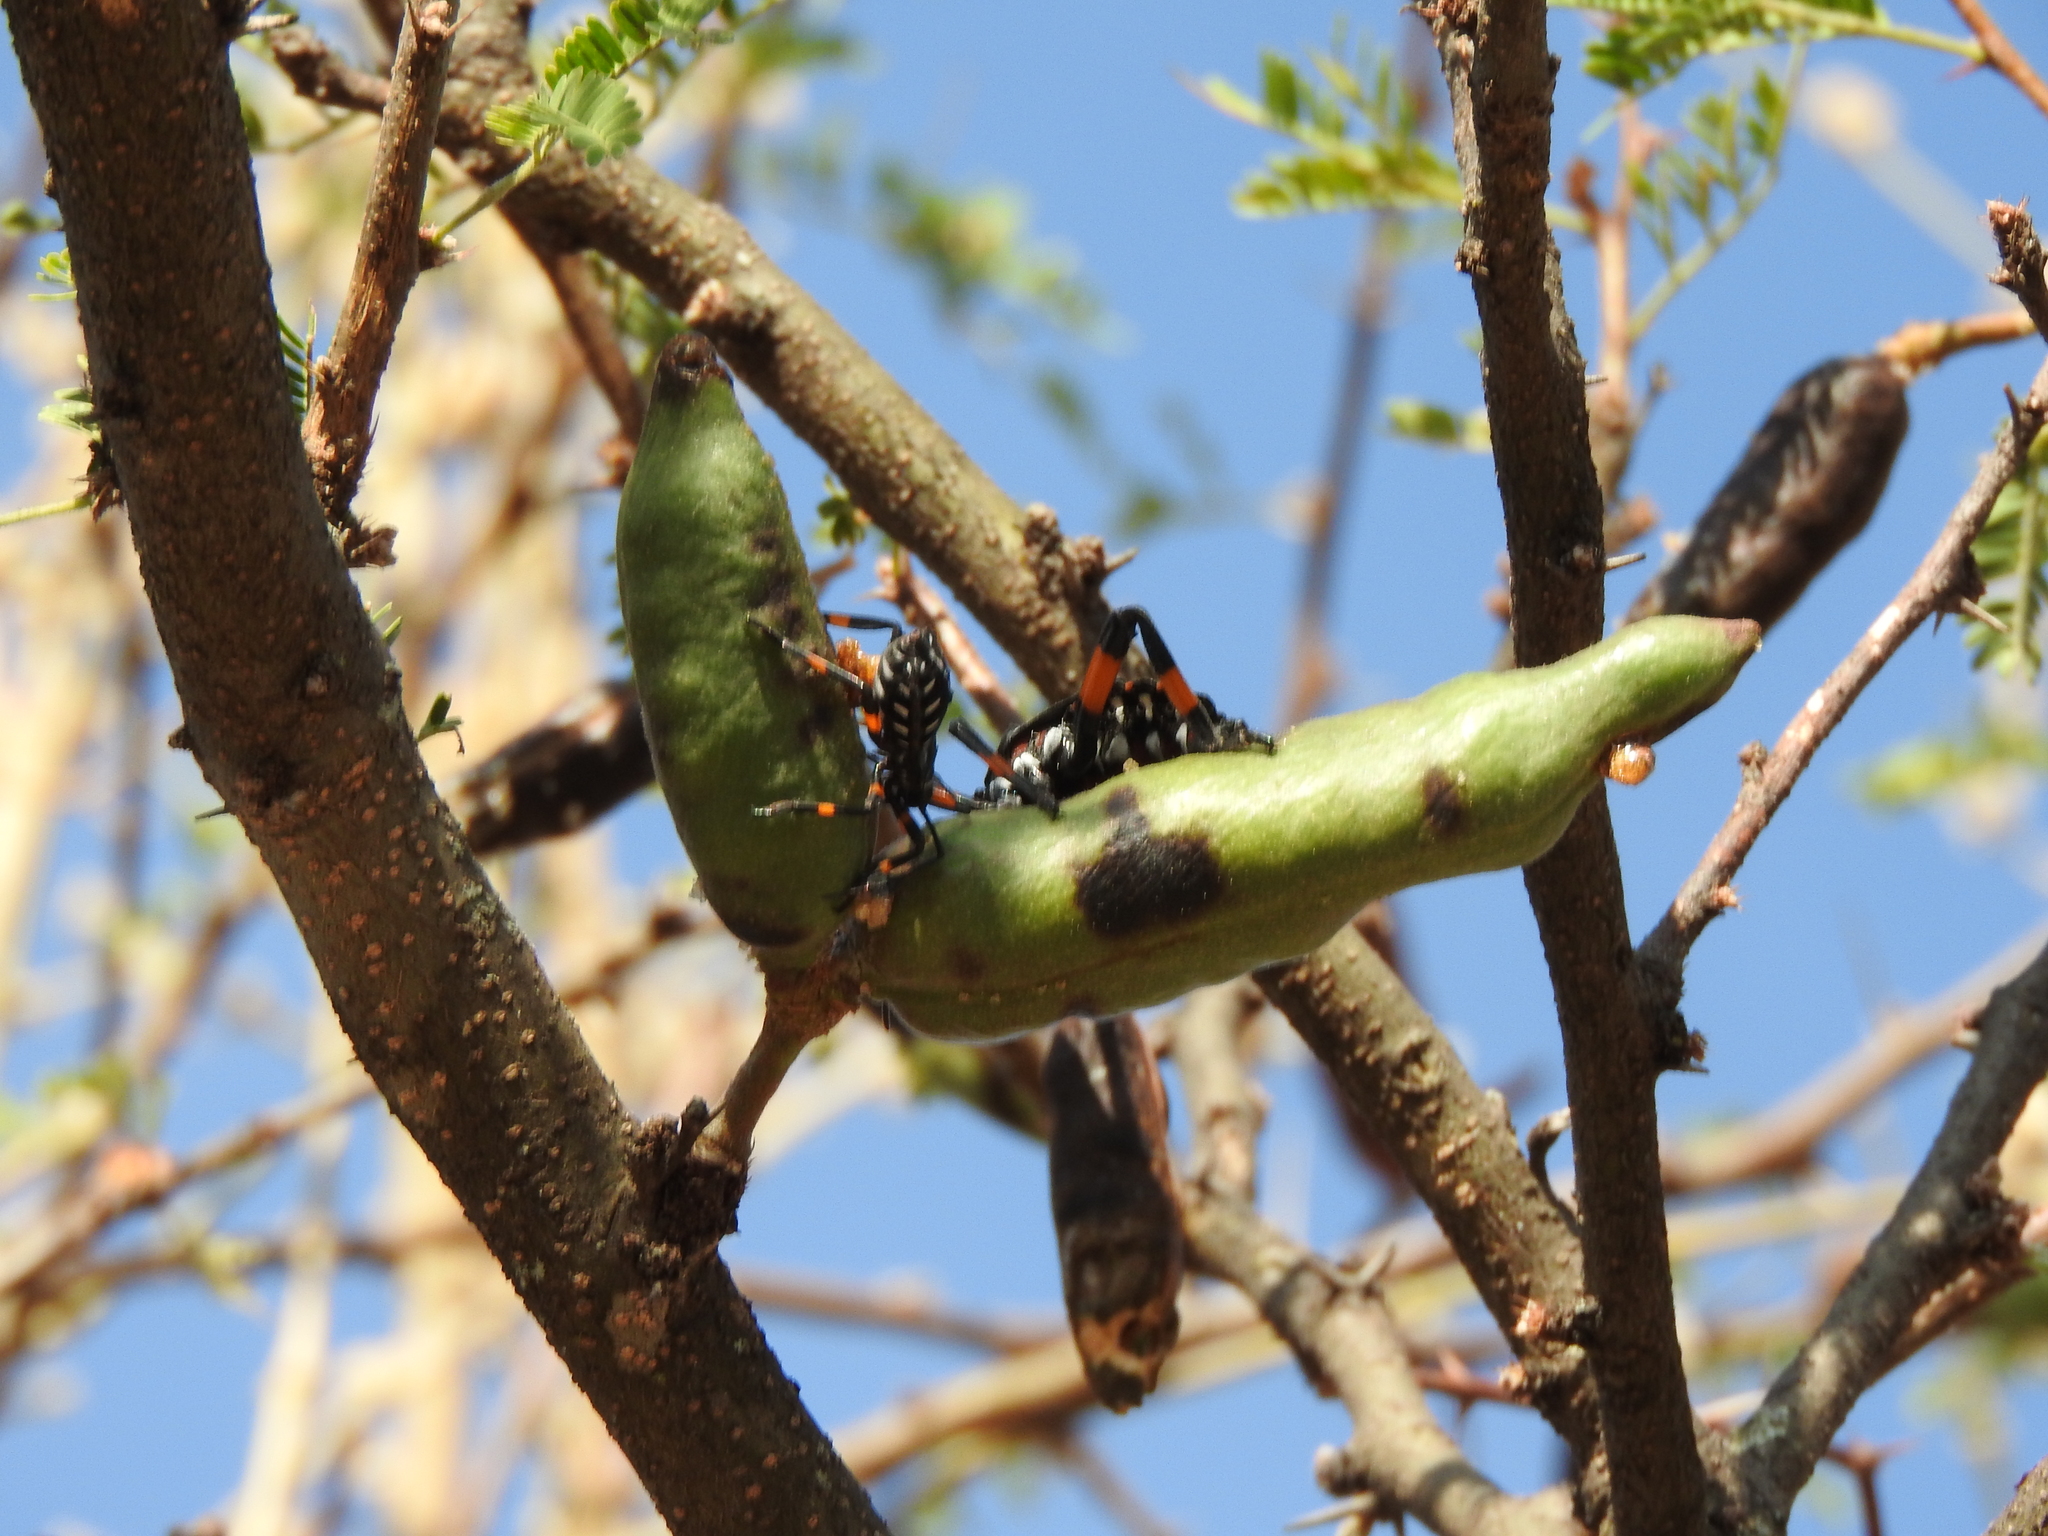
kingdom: Animalia
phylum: Arthropoda
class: Insecta
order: Hemiptera
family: Coreidae
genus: Thasus
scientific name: Thasus
